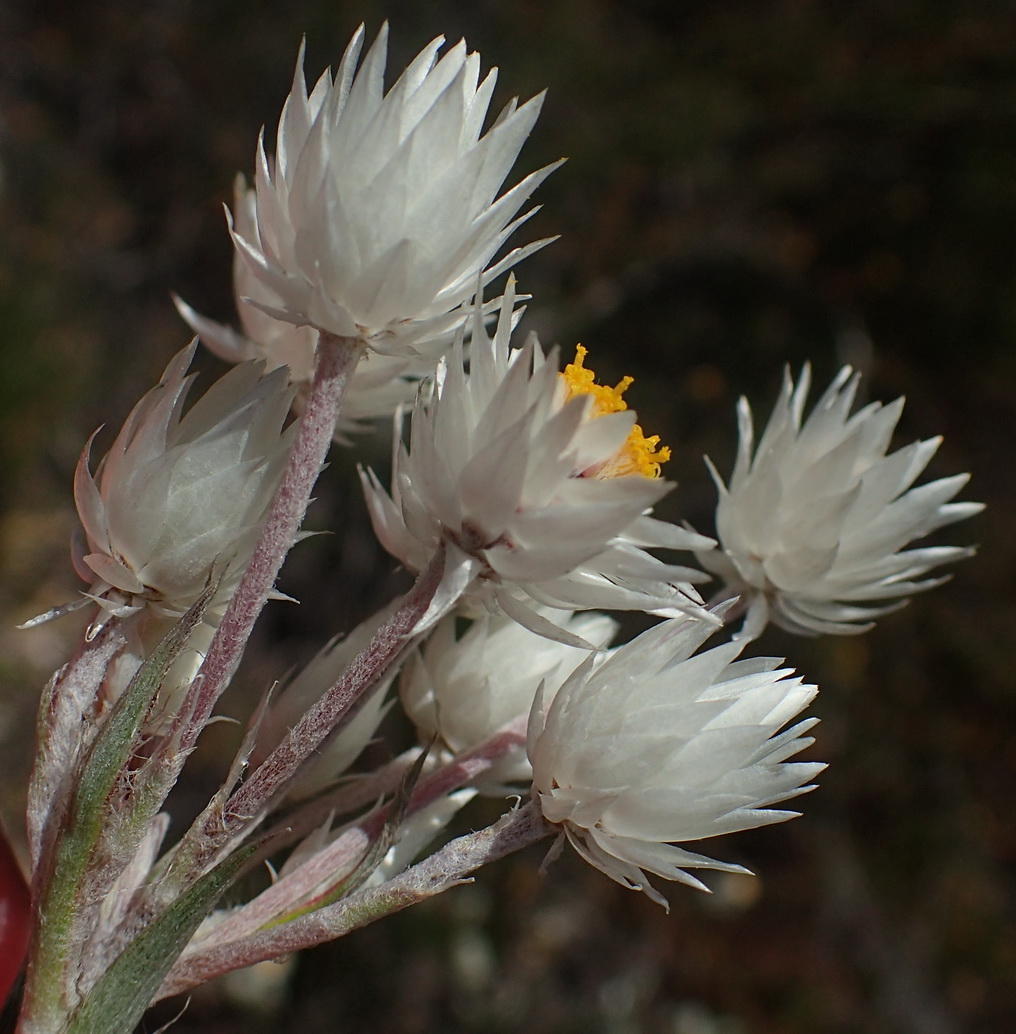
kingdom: Plantae
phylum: Tracheophyta
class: Magnoliopsida
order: Asterales
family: Asteraceae
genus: Achyranthemum
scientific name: Achyranthemum paniculatum
